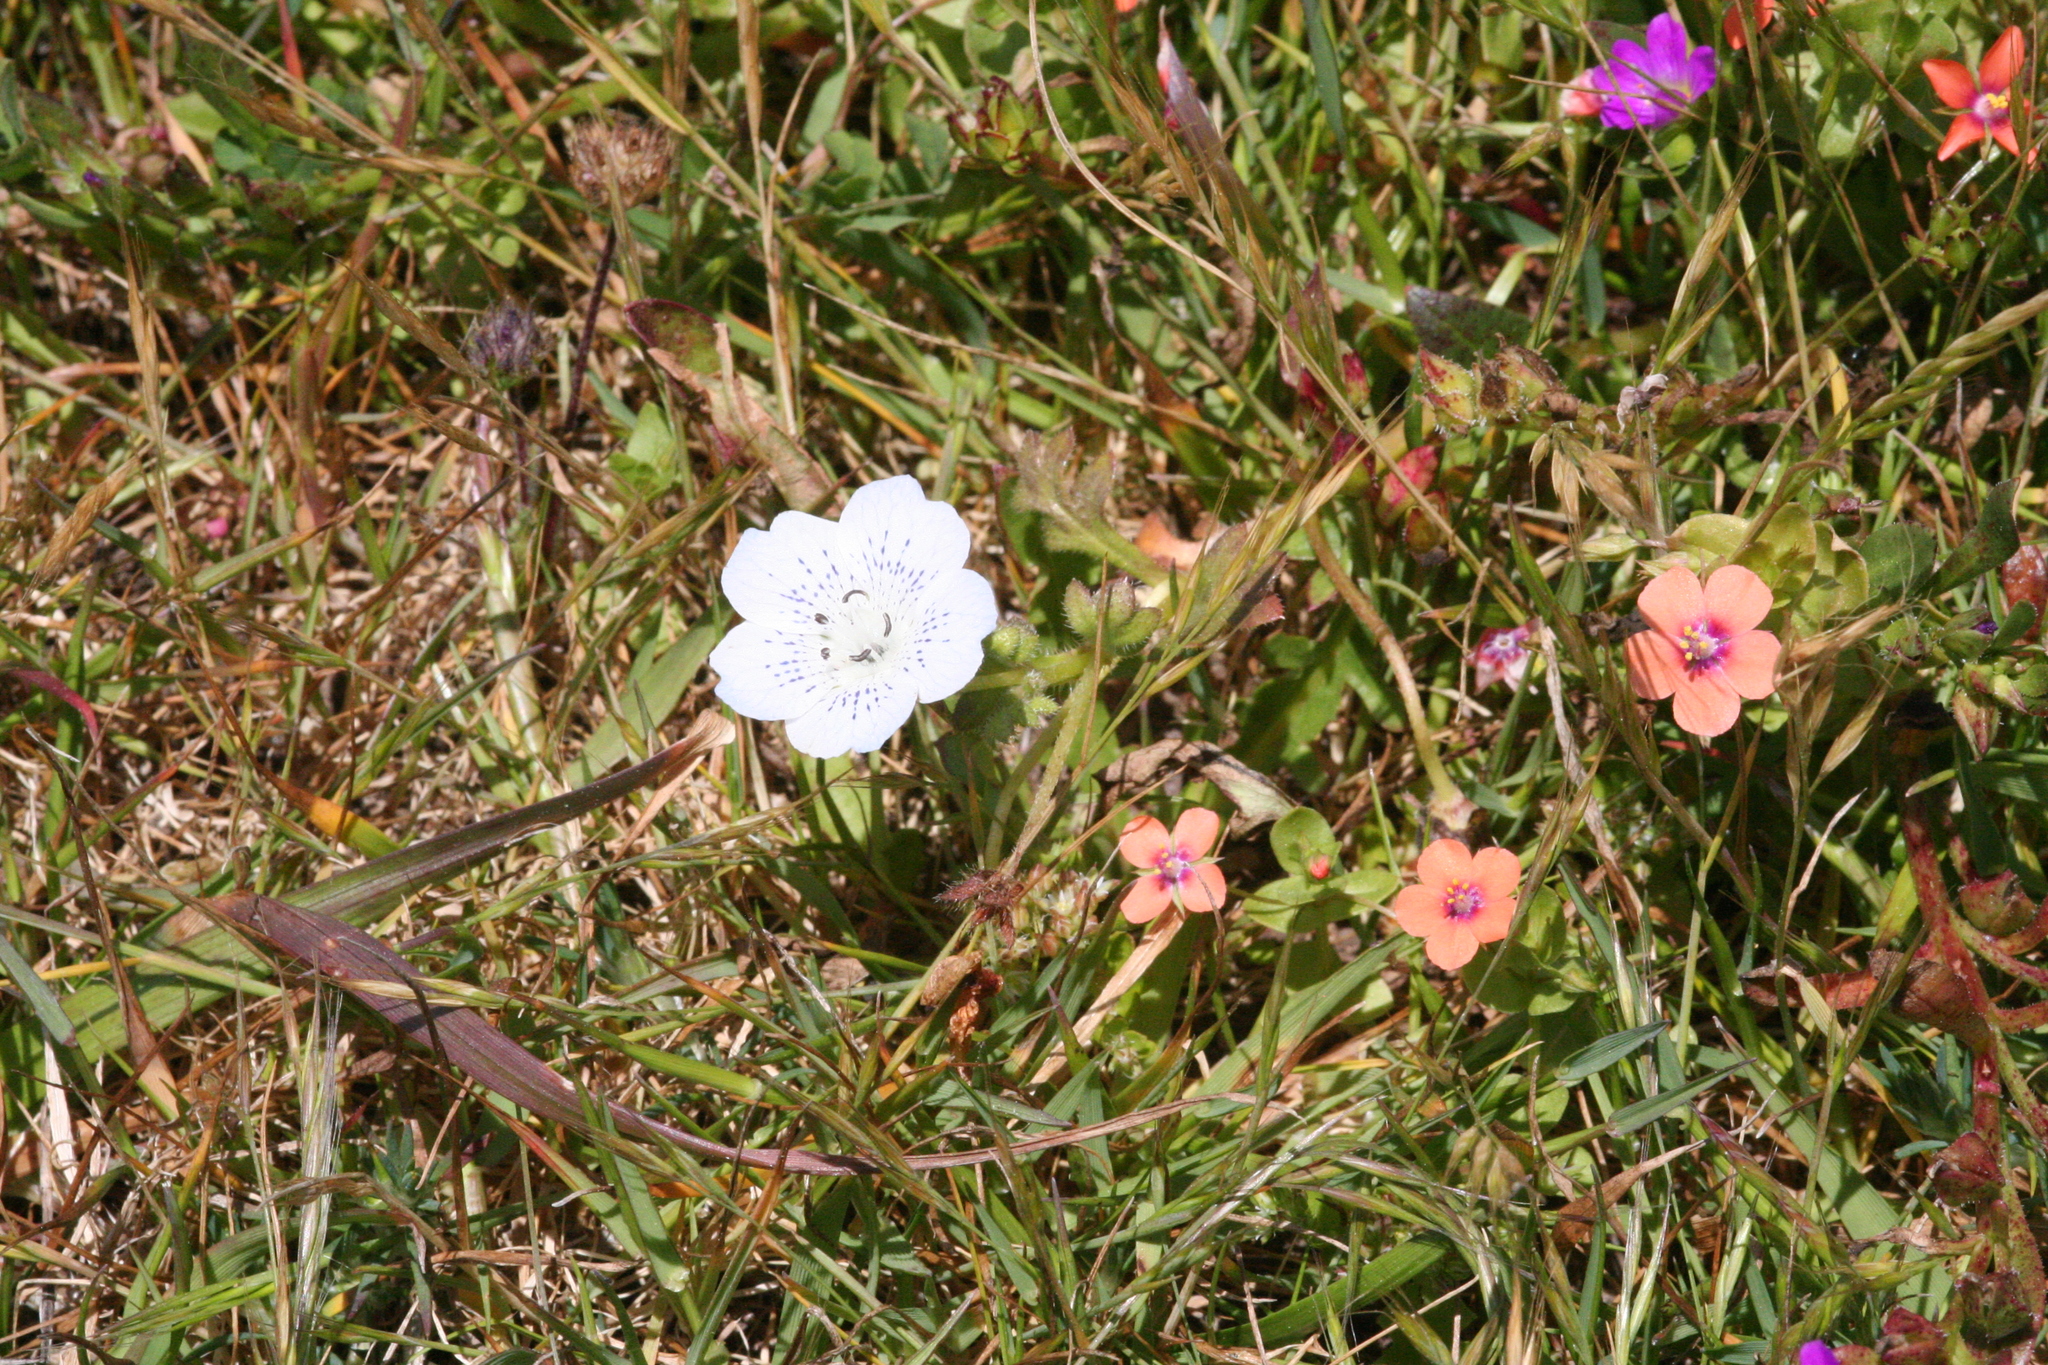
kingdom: Plantae
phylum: Tracheophyta
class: Magnoliopsida
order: Boraginales
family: Hydrophyllaceae
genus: Nemophila
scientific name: Nemophila menziesii
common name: Baby's-blue-eyes
